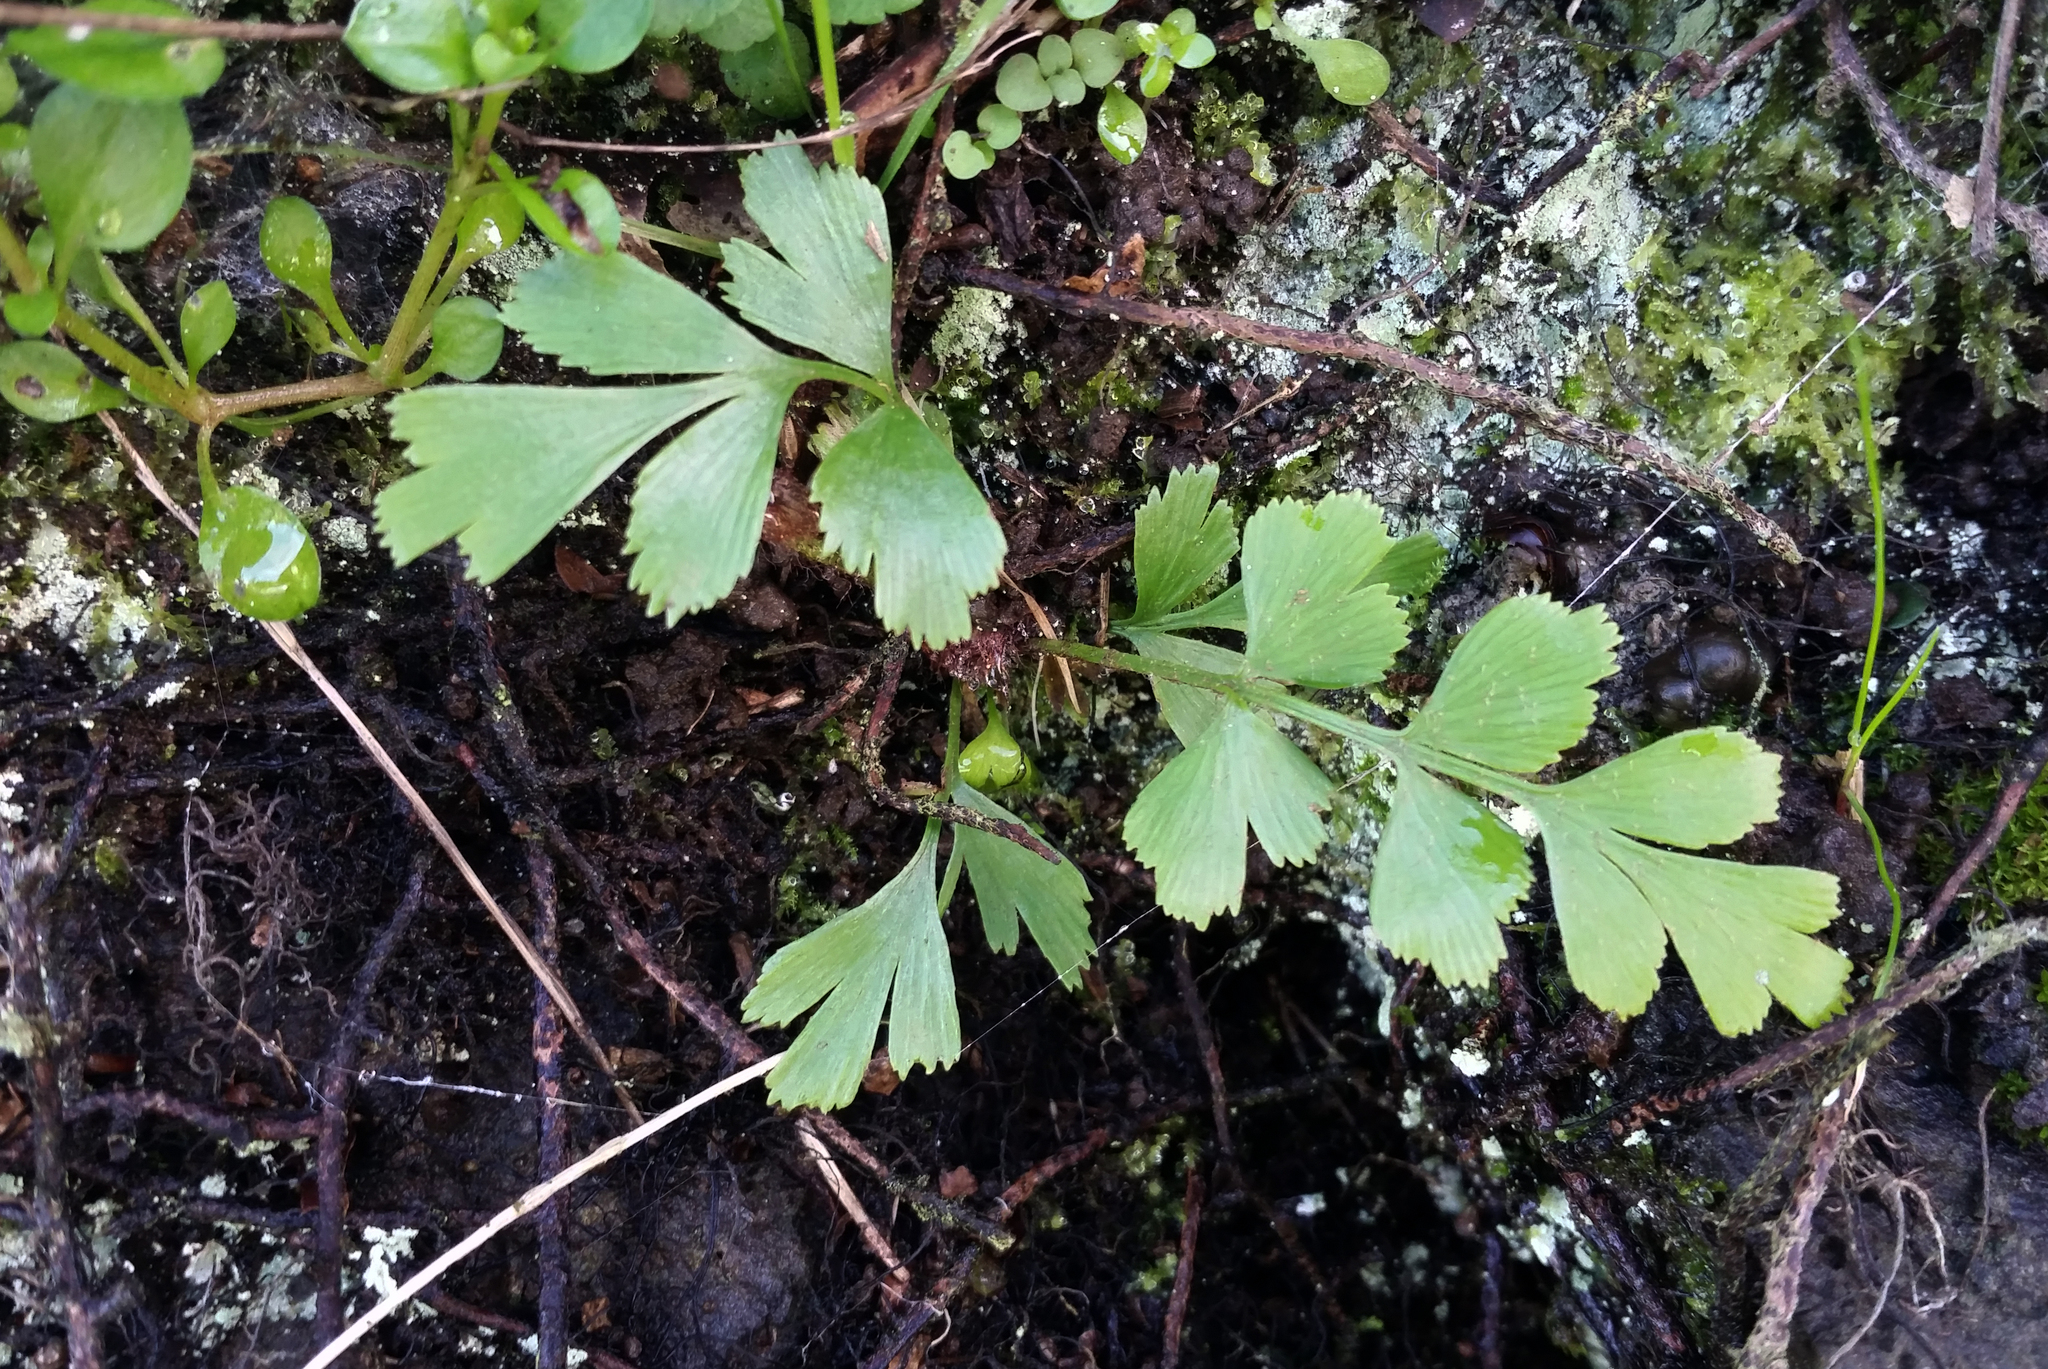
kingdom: Plantae
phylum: Tracheophyta
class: Polypodiopsida
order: Polypodiales
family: Aspleniaceae
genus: Asplenium
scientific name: Asplenium aethiopicum
